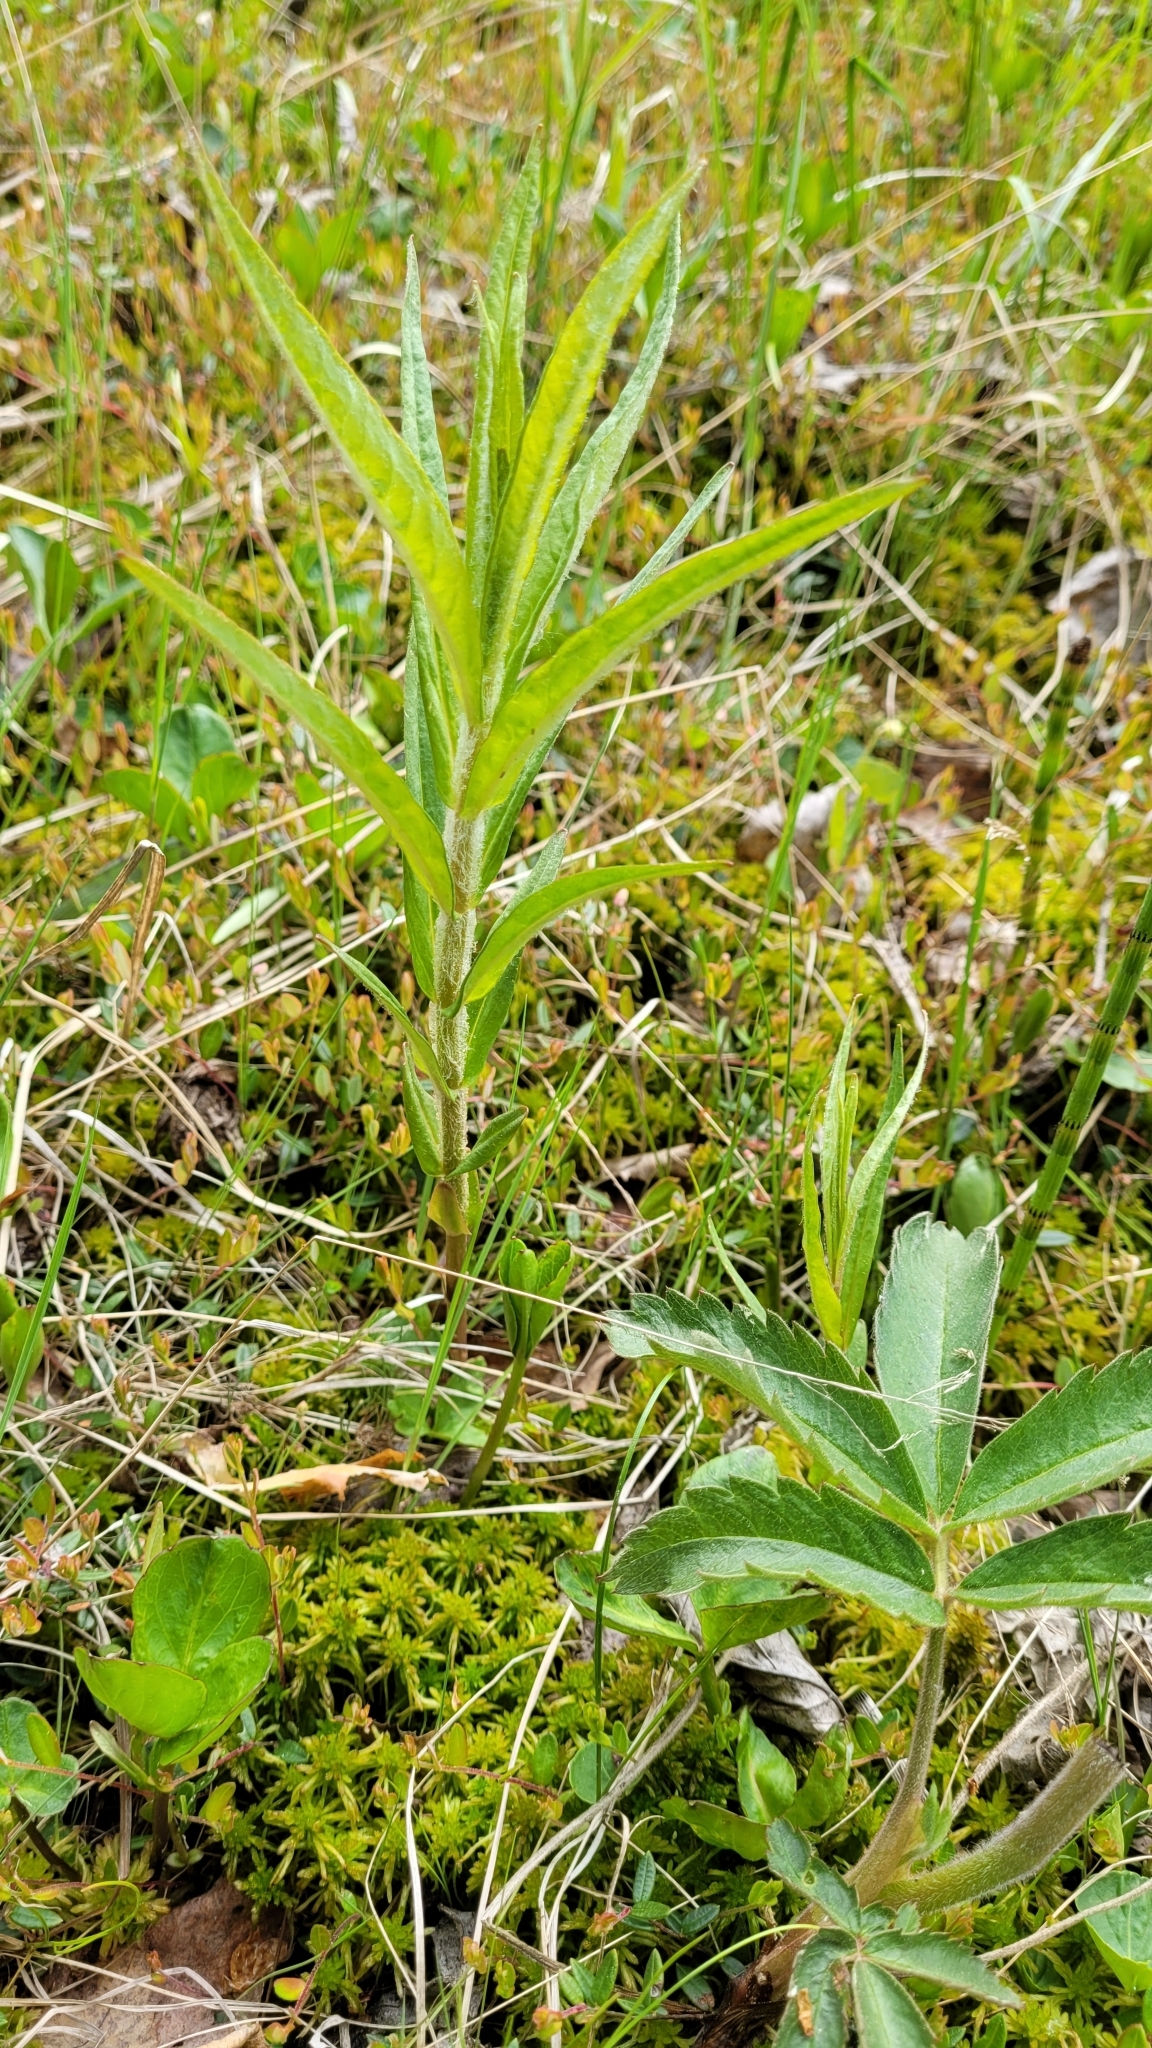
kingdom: Plantae
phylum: Tracheophyta
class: Magnoliopsida
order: Ericales
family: Primulaceae
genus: Lysimachia
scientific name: Lysimachia thyrsiflora
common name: Tufted loosestrife
